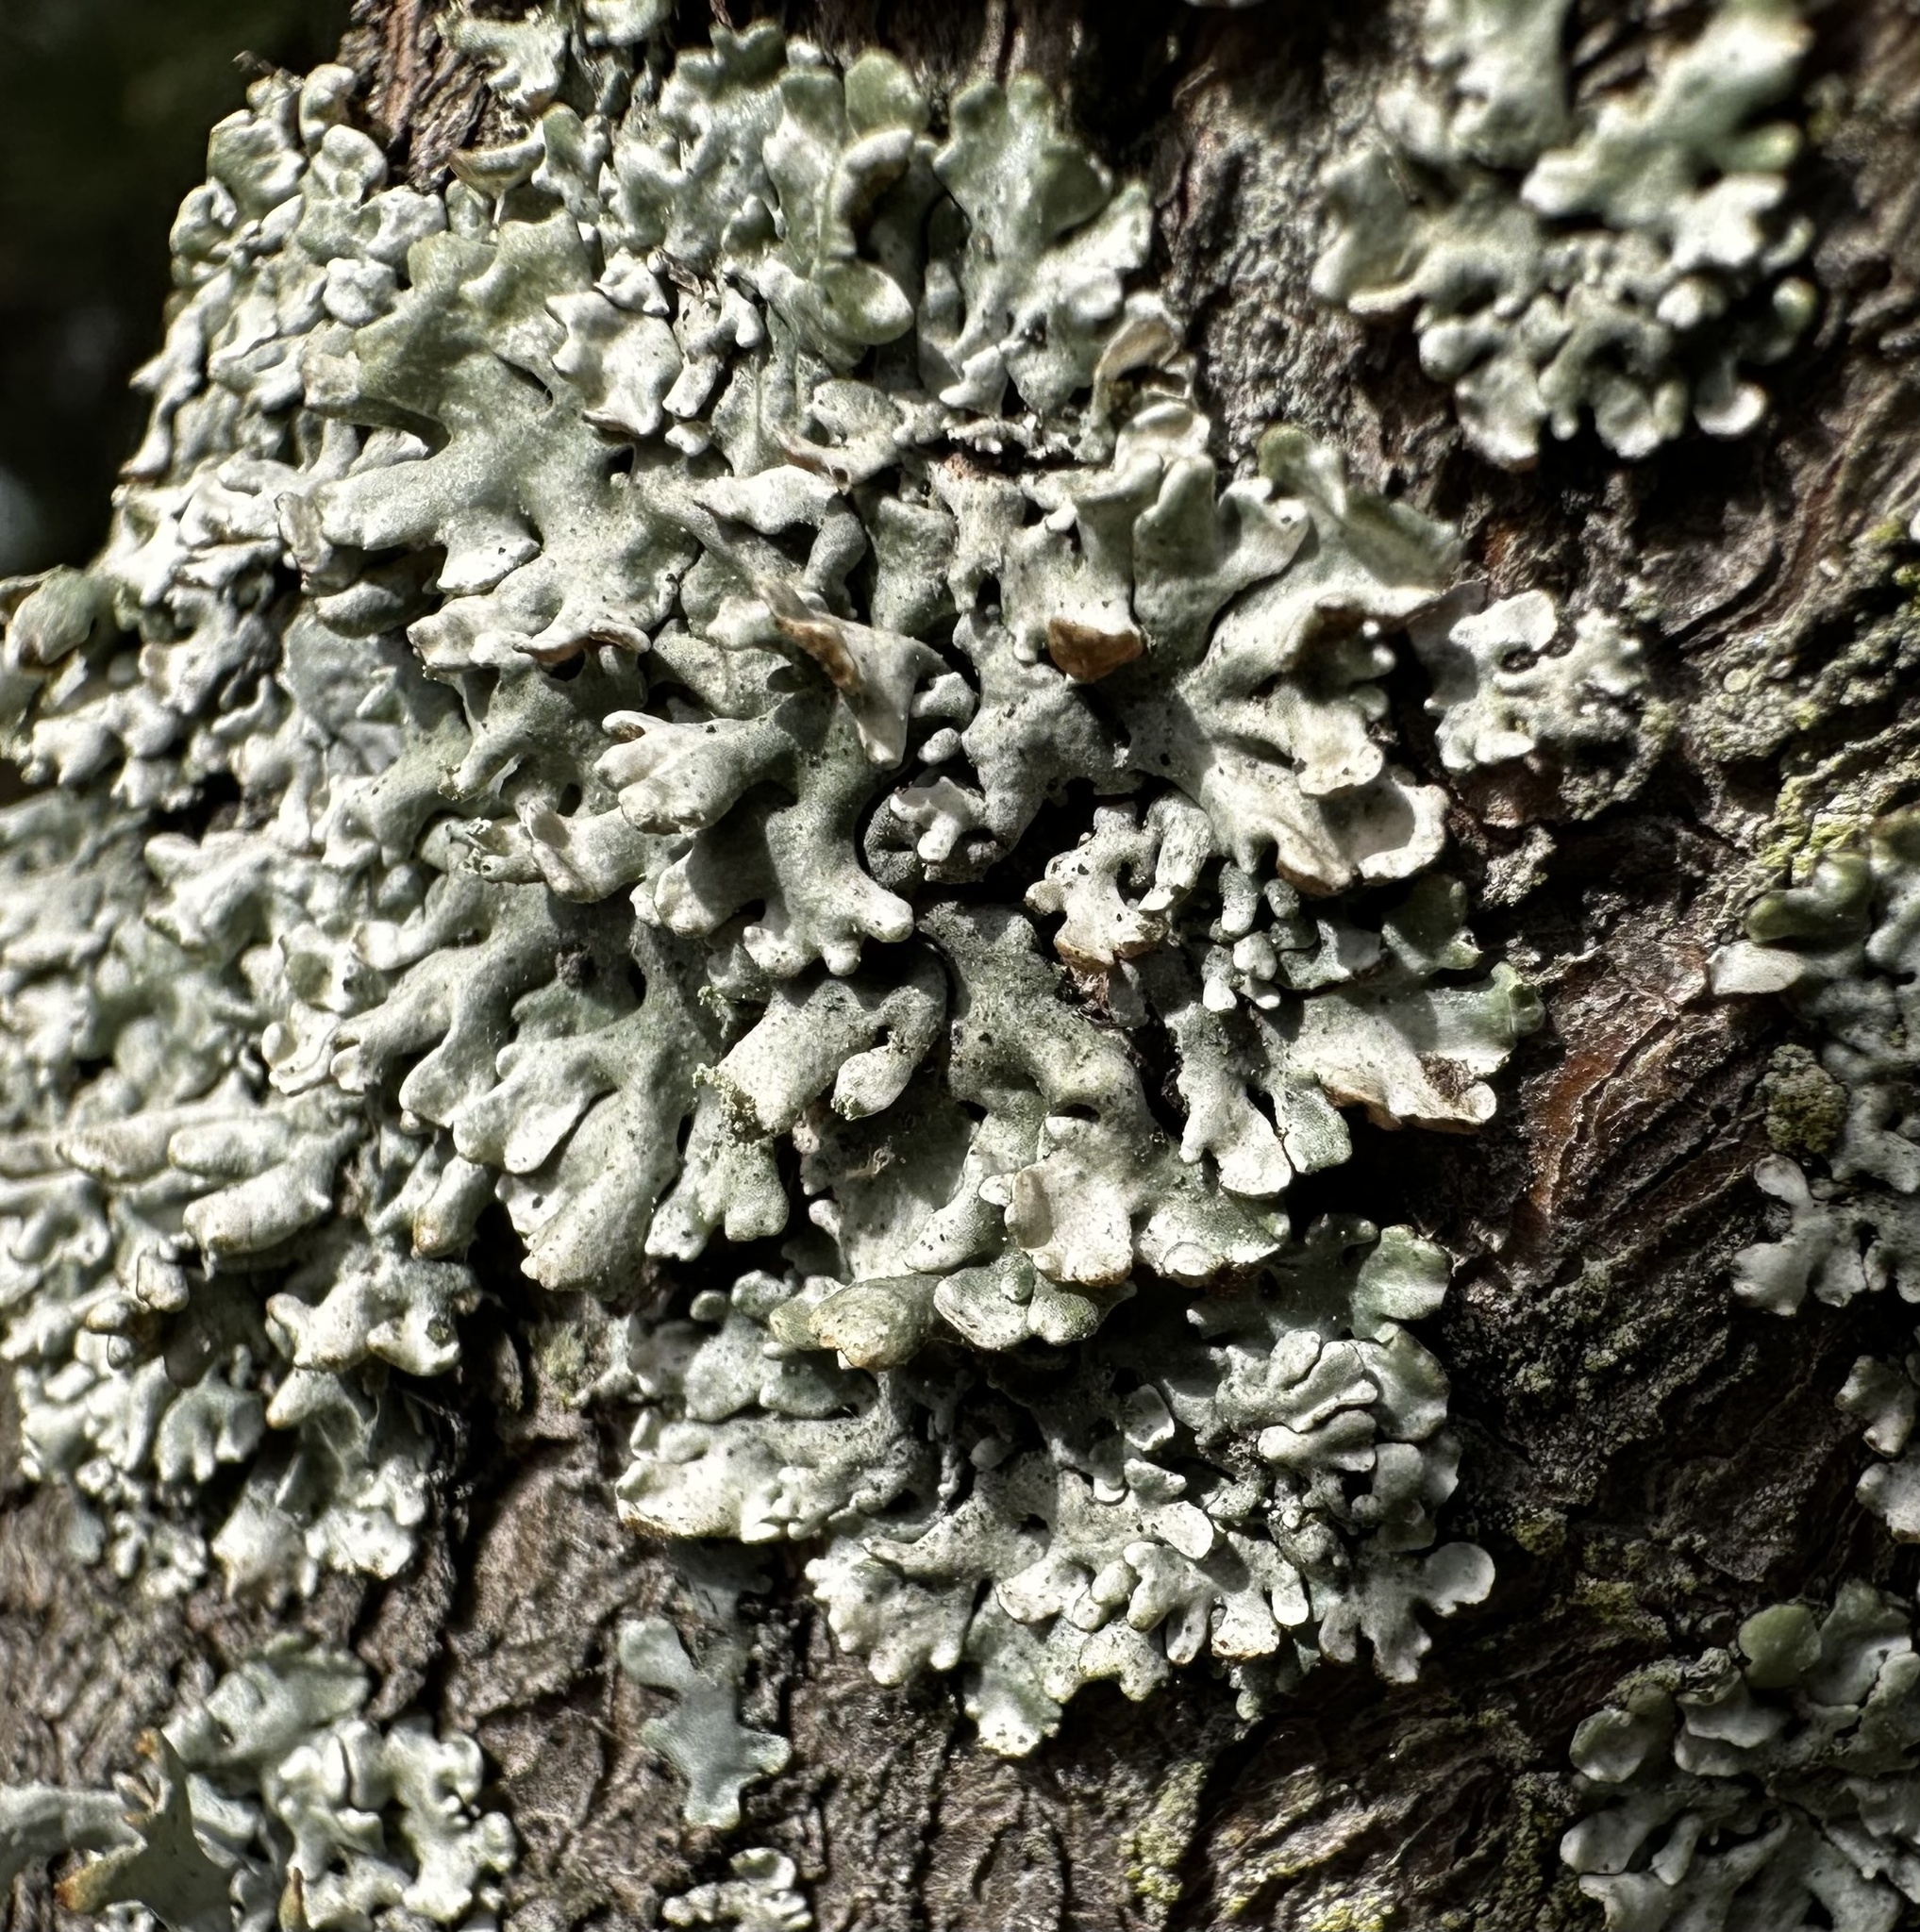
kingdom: Fungi
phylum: Ascomycota
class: Lecanoromycetes
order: Lecanorales
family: Parmeliaceae
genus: Hypogymnia
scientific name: Hypogymnia physodes
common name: Dark crottle
